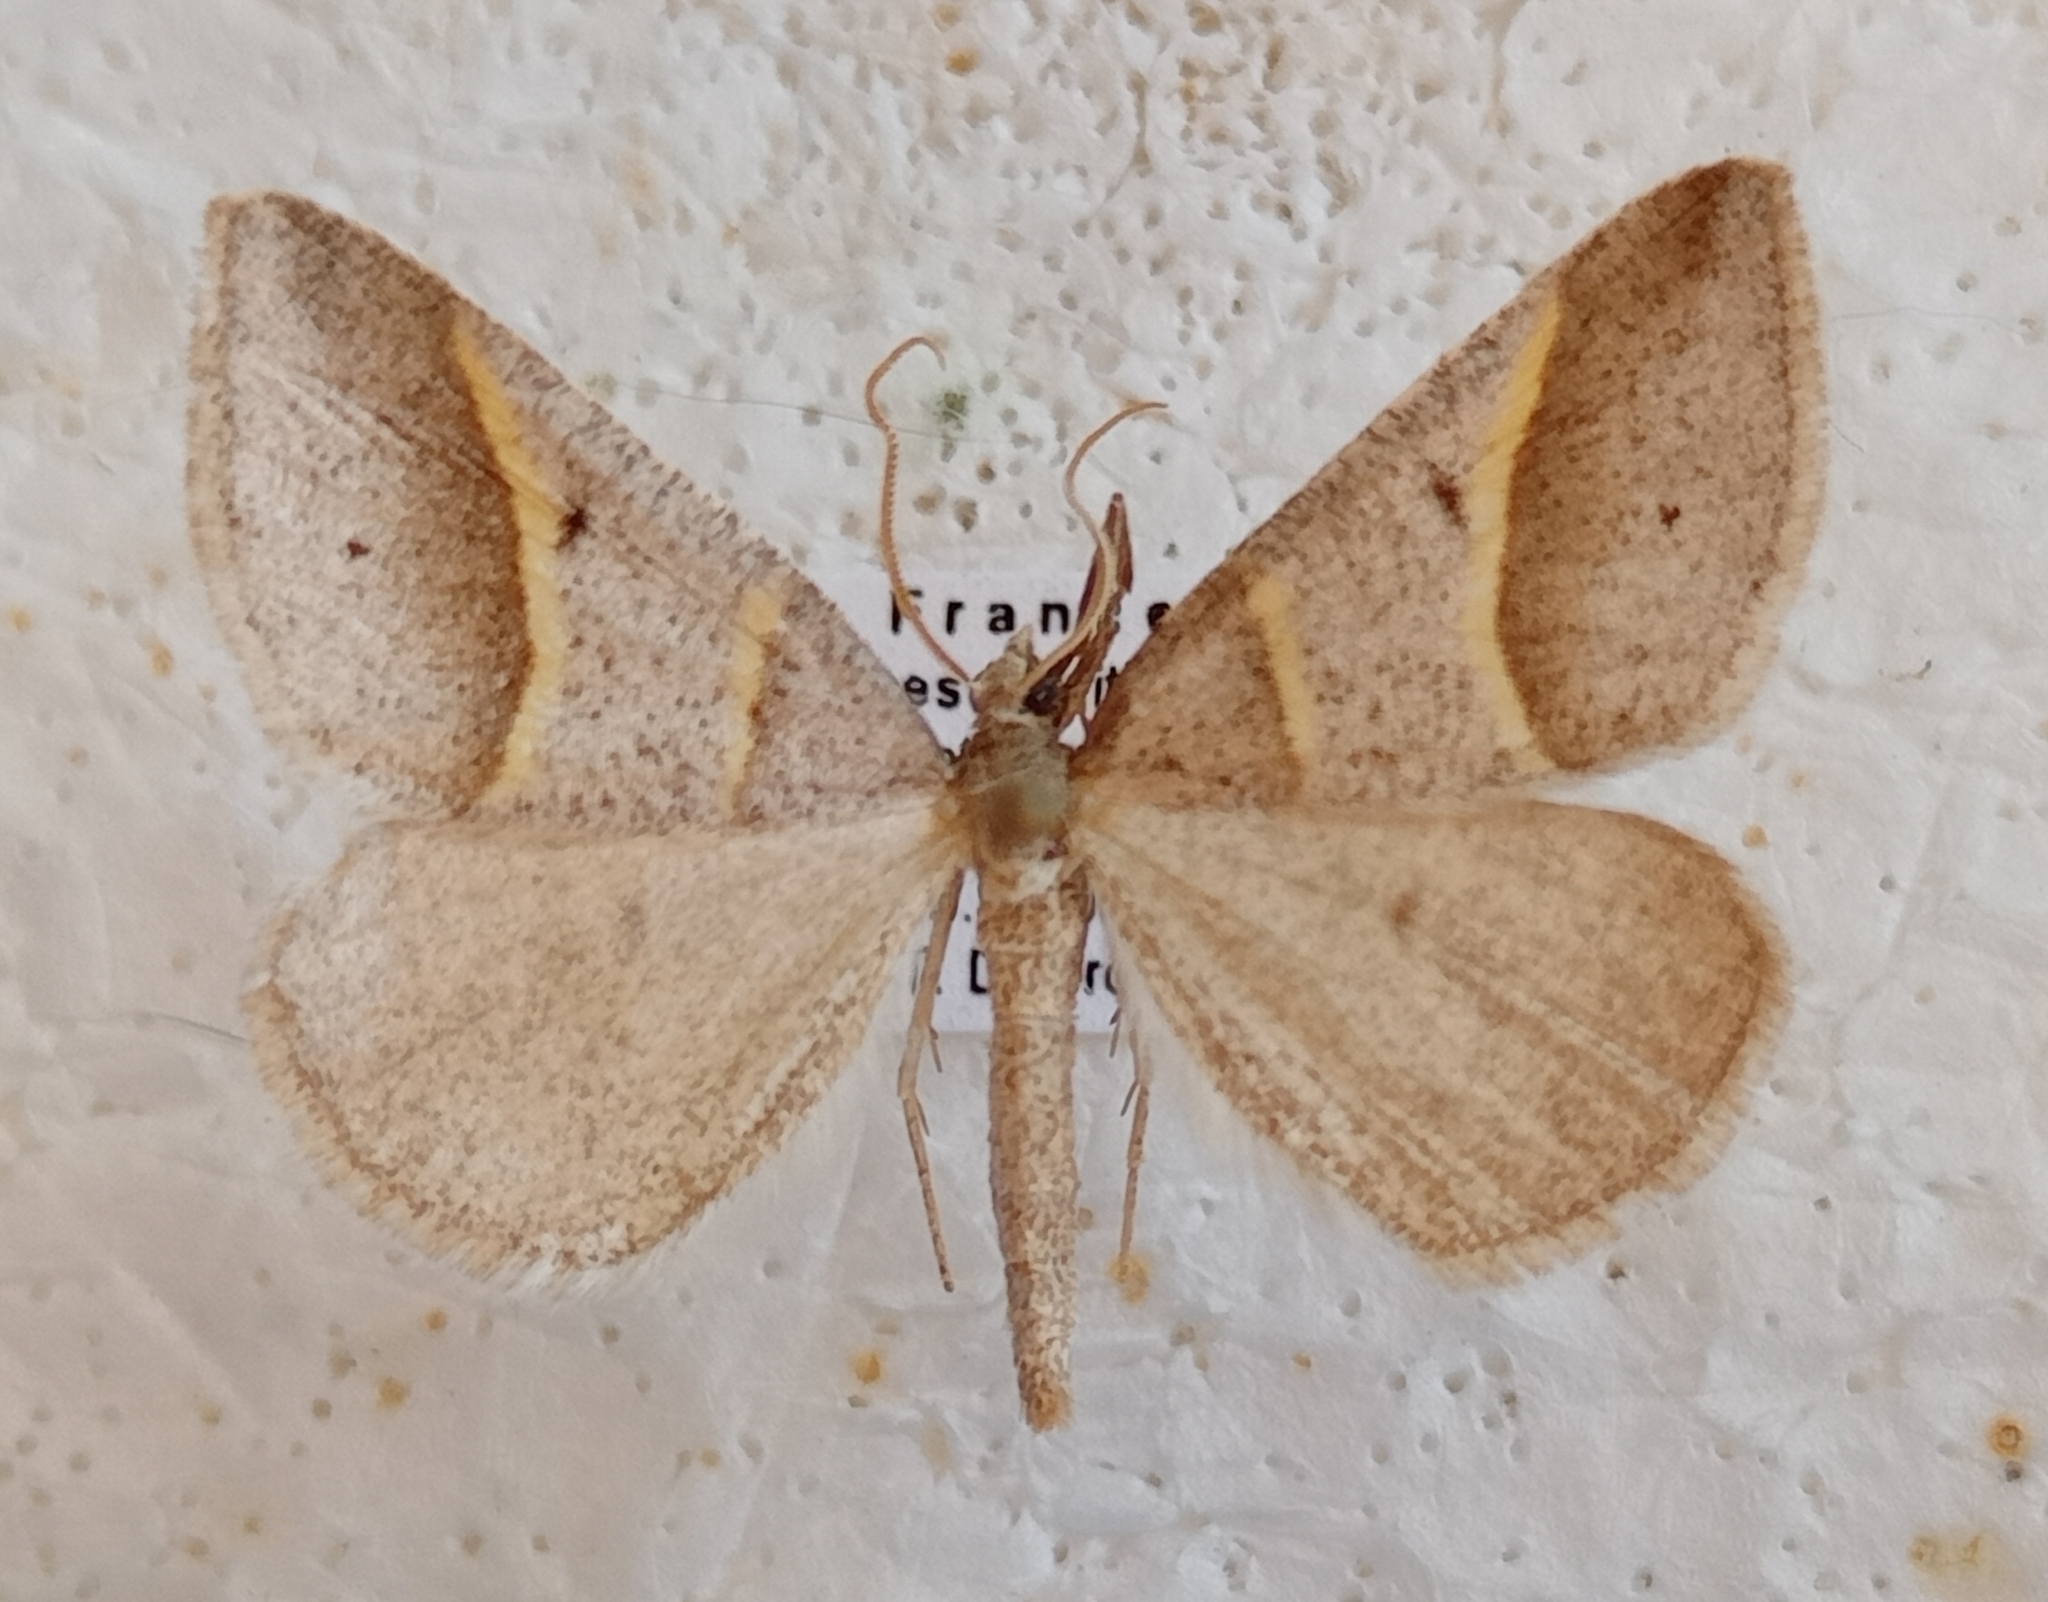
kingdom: Animalia
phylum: Arthropoda
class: Insecta
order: Lepidoptera
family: Pterophoridae
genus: Pterophorus
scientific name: Pterophorus Petrophora convergata
